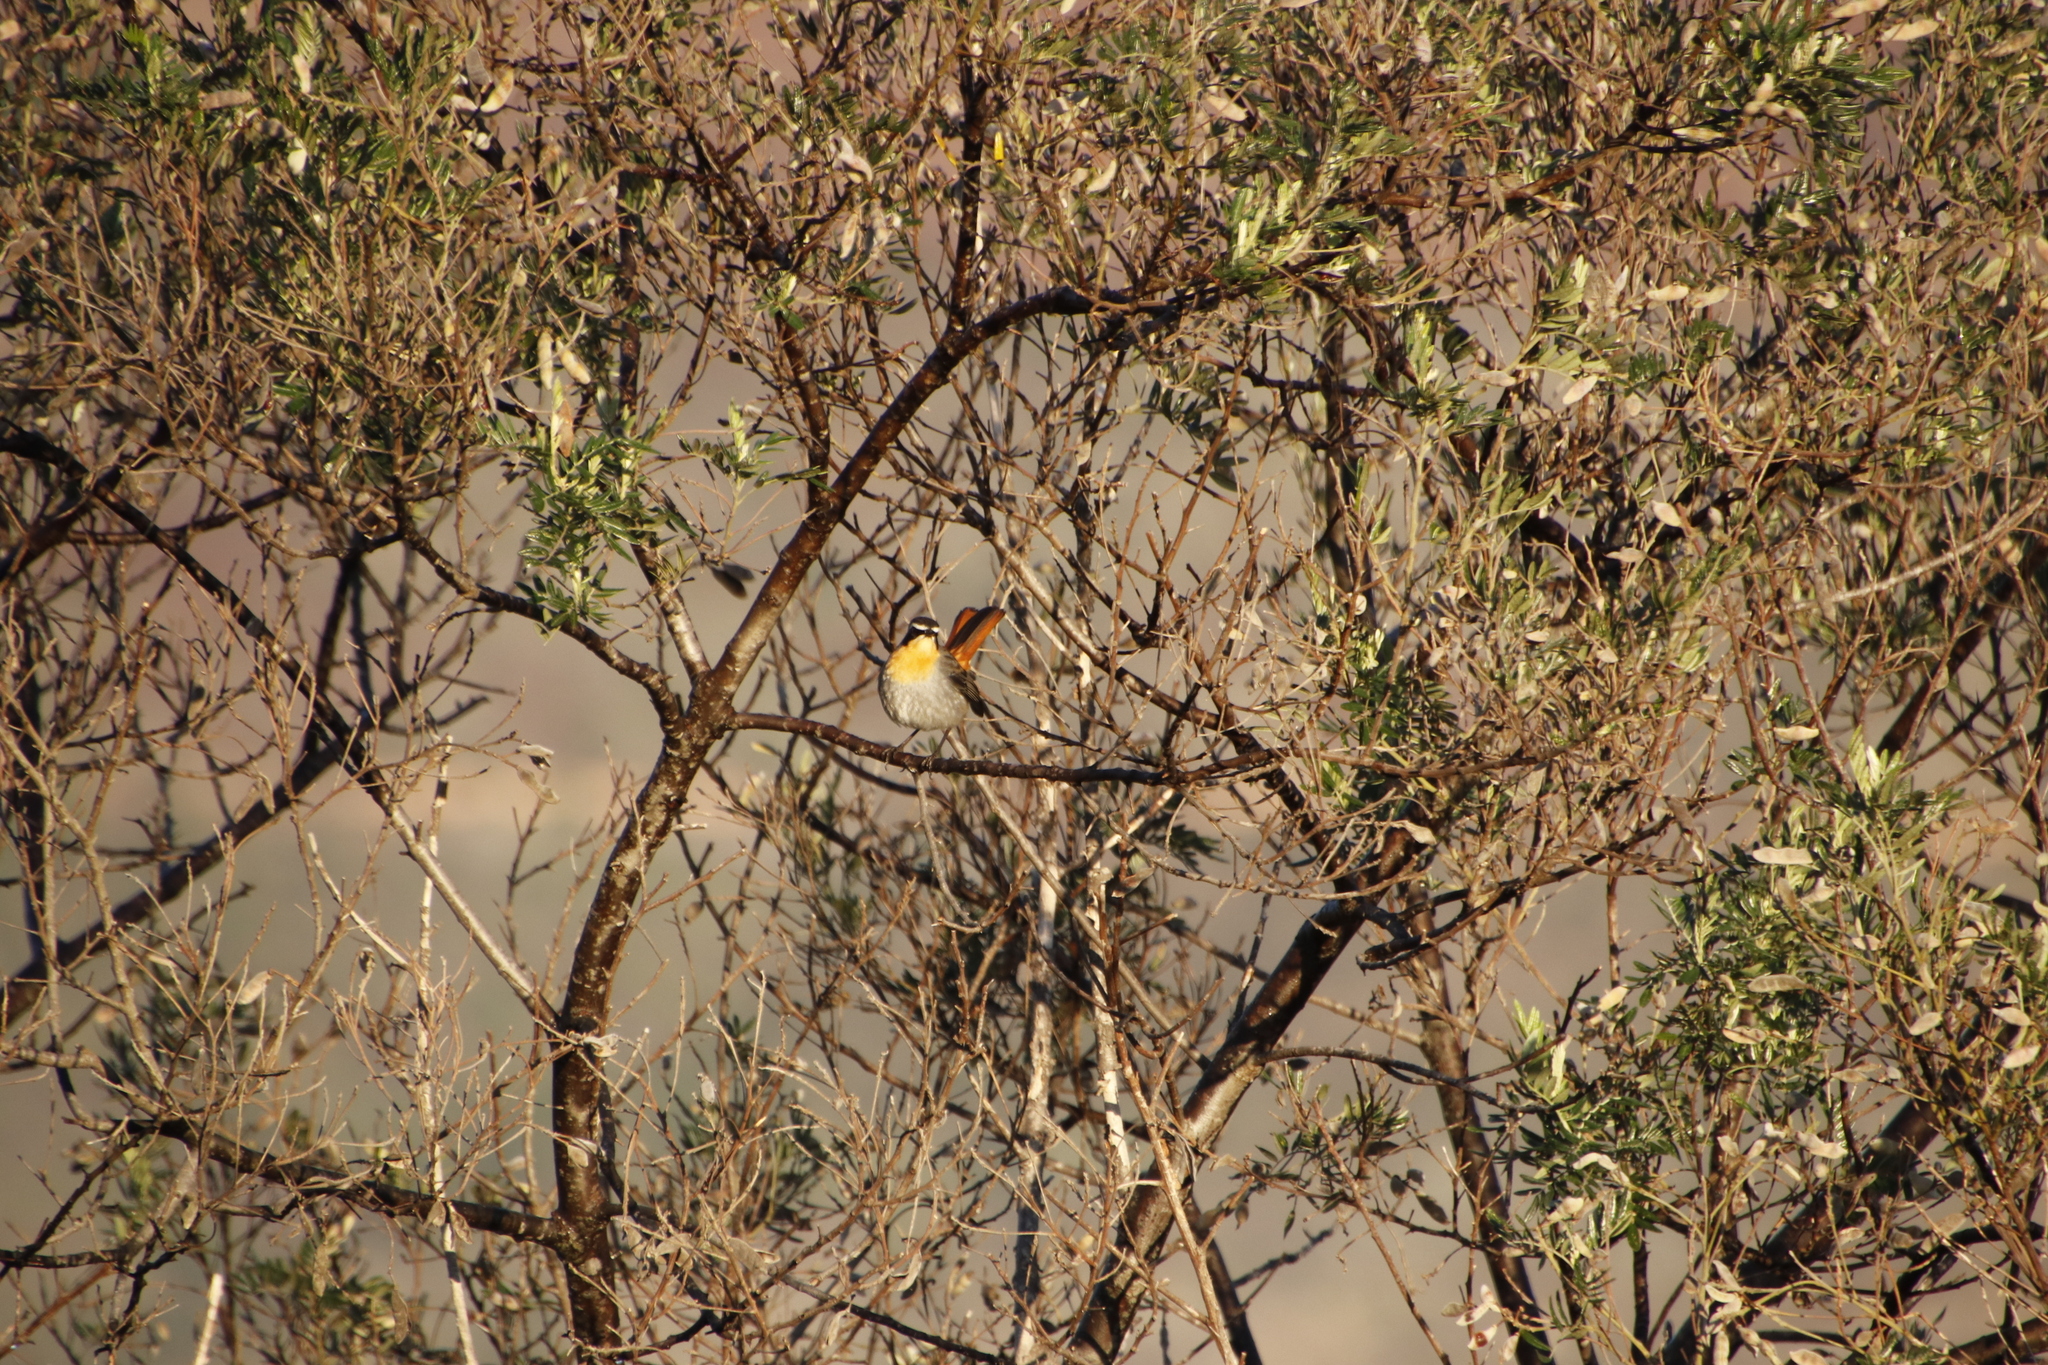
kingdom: Animalia
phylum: Chordata
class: Aves
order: Passeriformes
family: Muscicapidae
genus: Cossypha
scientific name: Cossypha caffra
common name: Cape robin-chat
